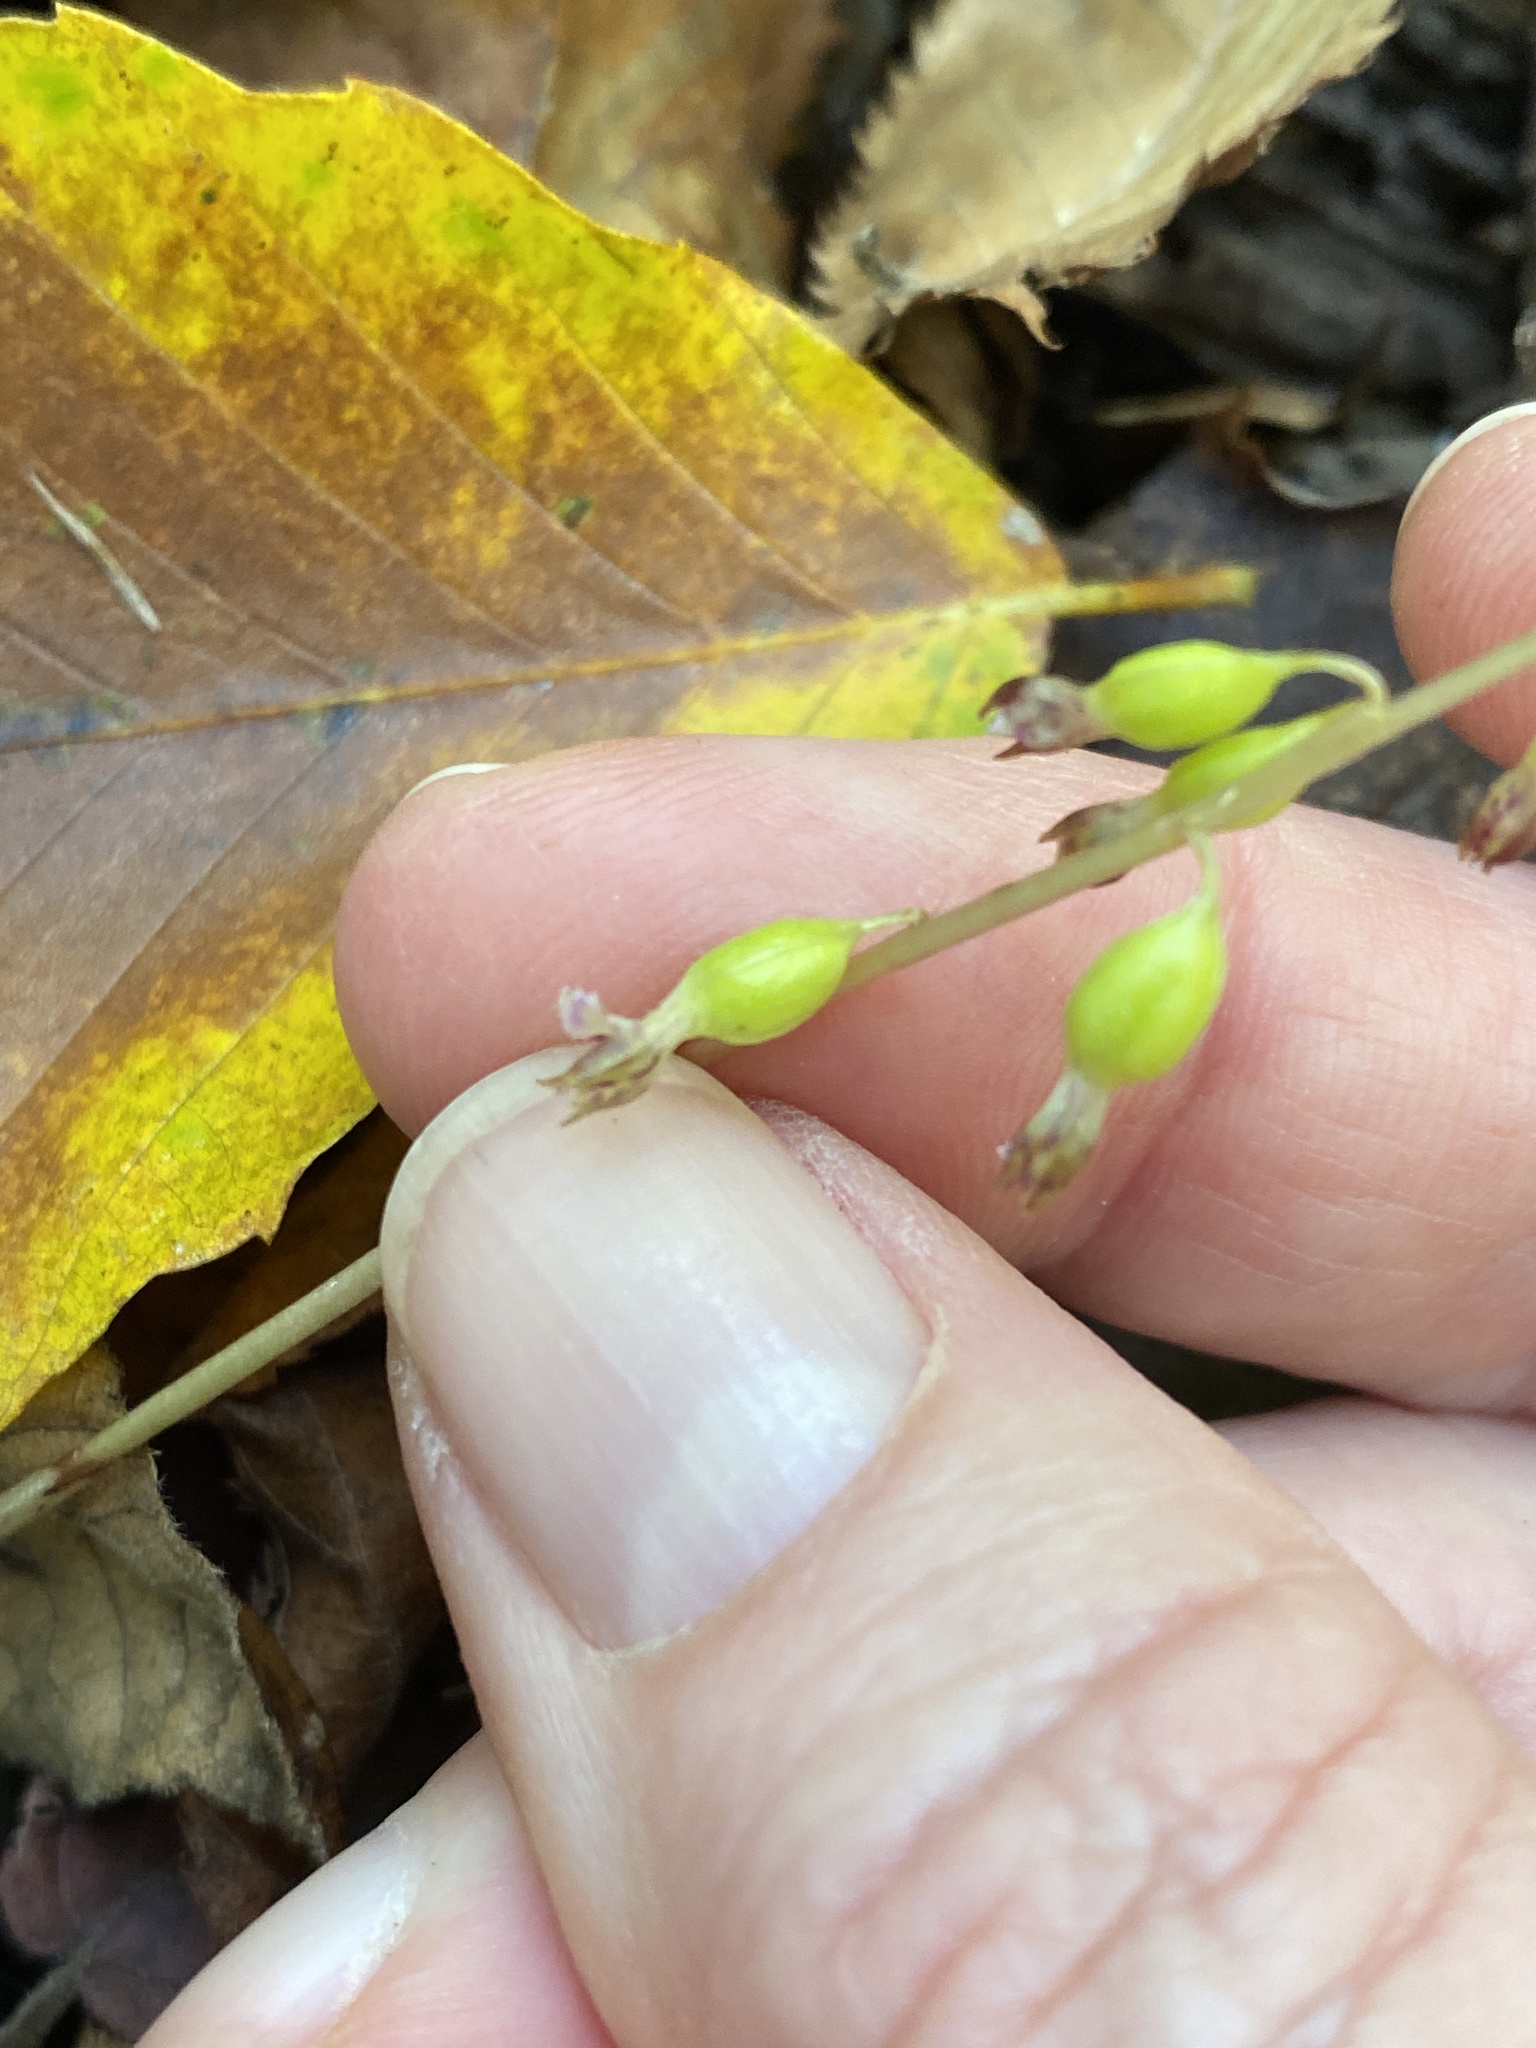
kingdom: Plantae
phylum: Tracheophyta
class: Liliopsida
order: Asparagales
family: Orchidaceae
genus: Corallorhiza
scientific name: Corallorhiza odontorhiza
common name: Autumn coralroot
